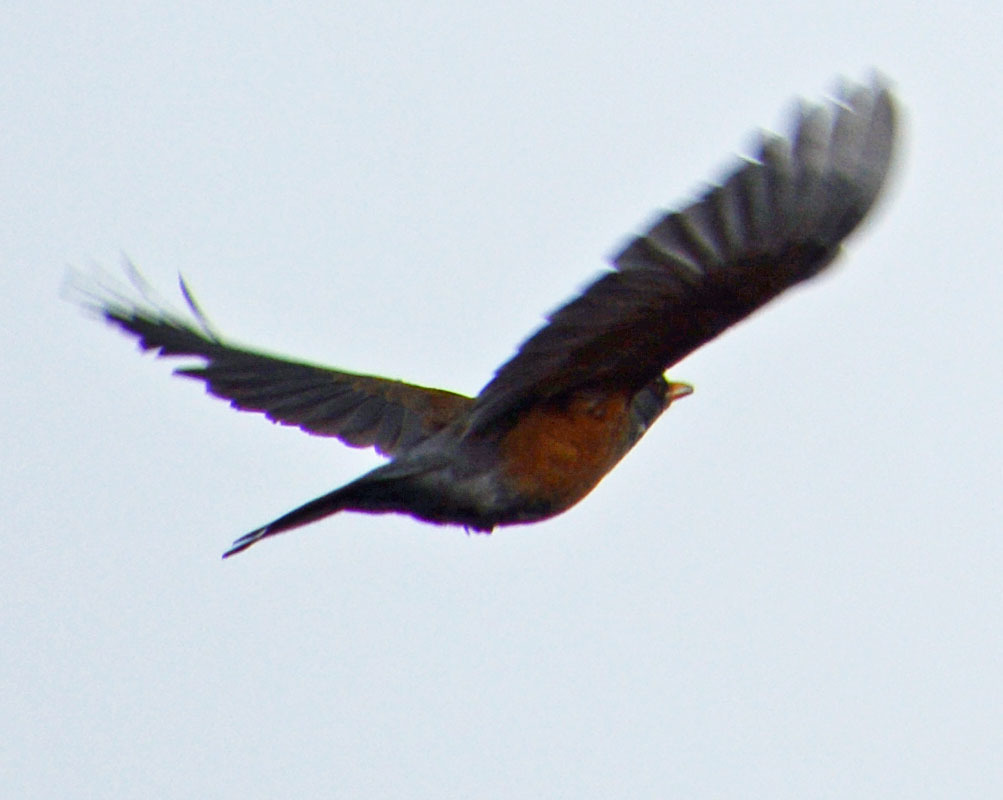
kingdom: Animalia
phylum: Chordata
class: Aves
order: Passeriformes
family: Turdidae
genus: Turdus
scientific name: Turdus rufopalliatus
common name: Rufous-backed robin
